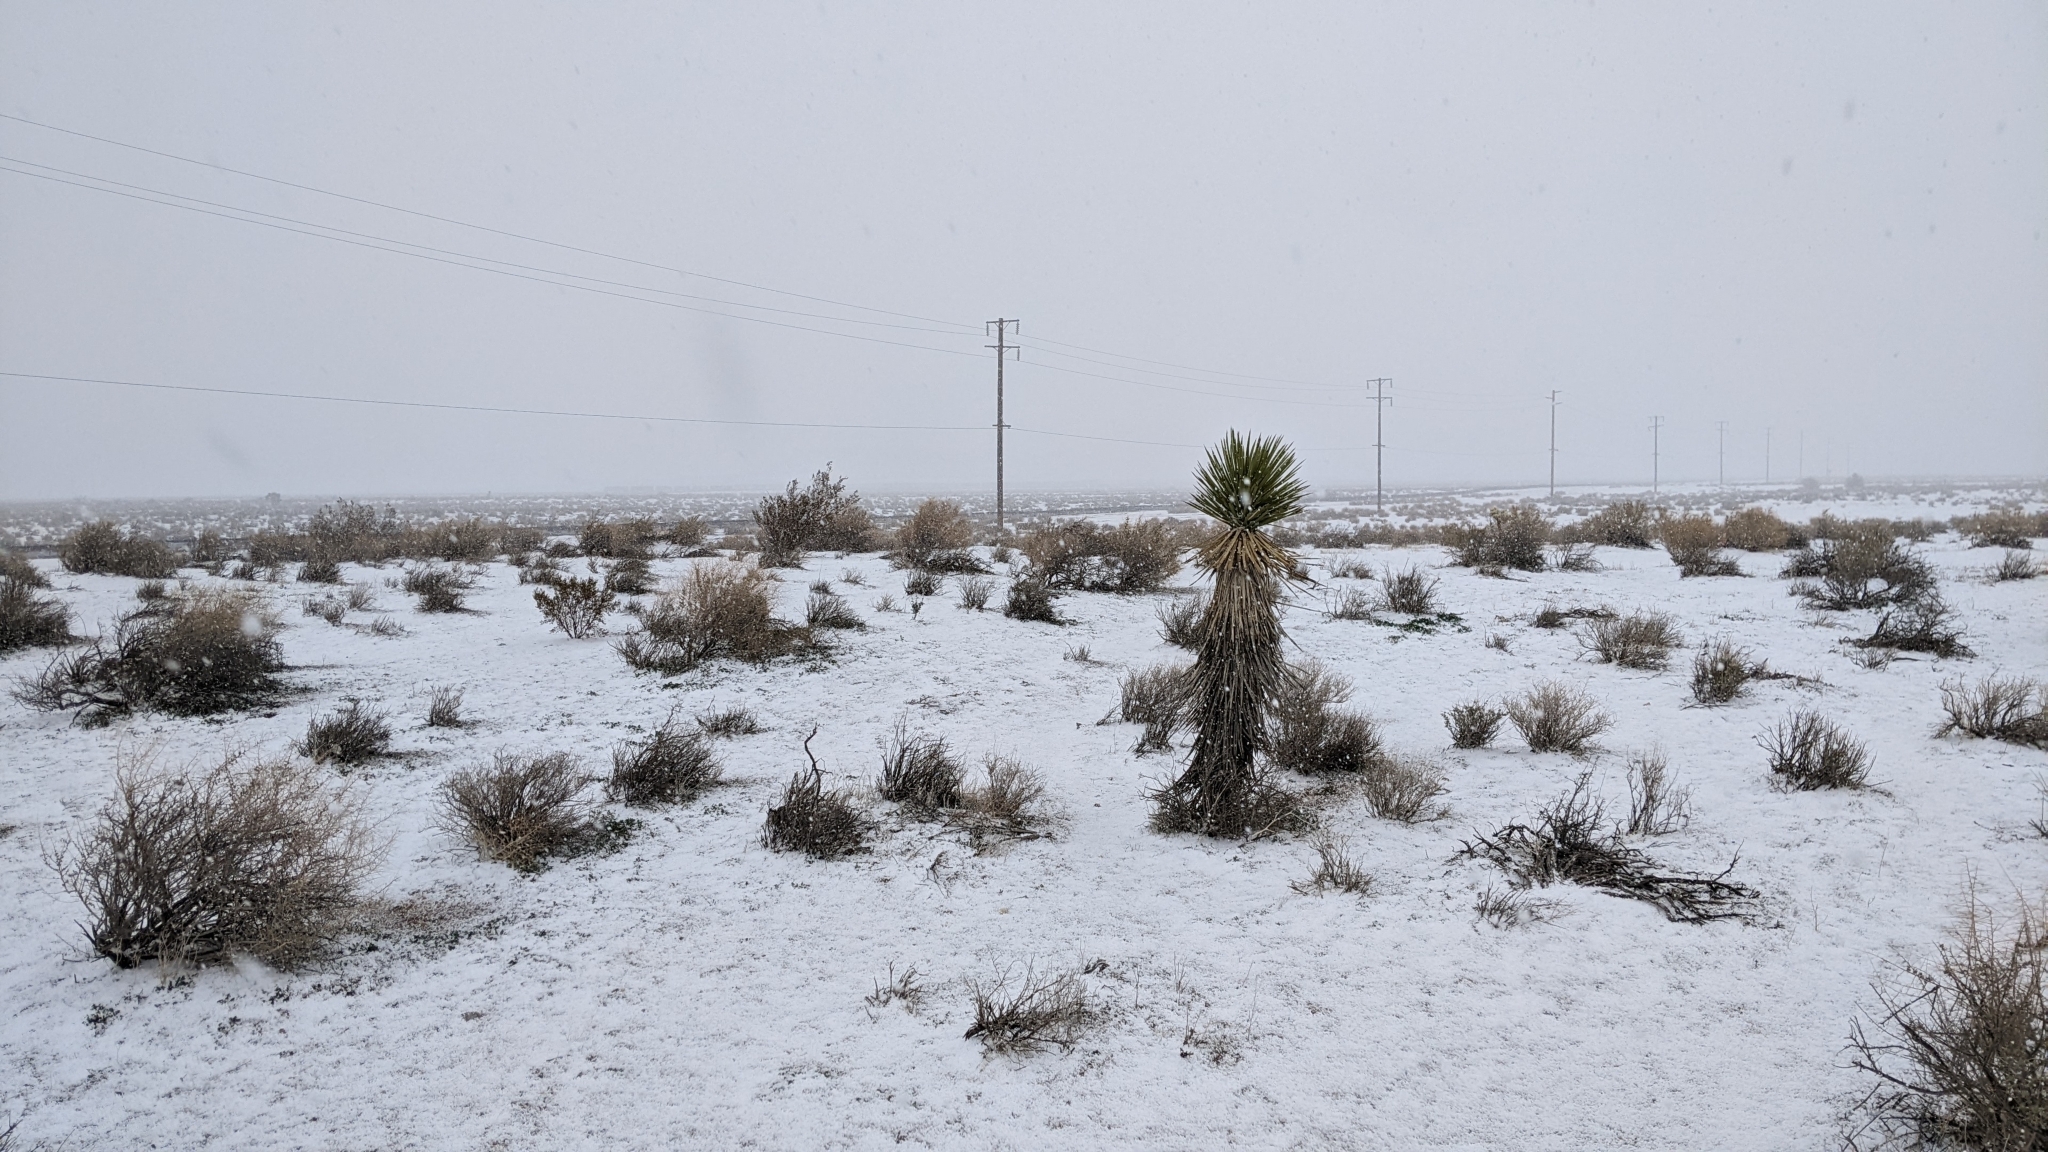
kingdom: Plantae
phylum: Tracheophyta
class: Liliopsida
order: Asparagales
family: Asparagaceae
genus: Yucca
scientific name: Yucca brevifolia
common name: Joshua tree
